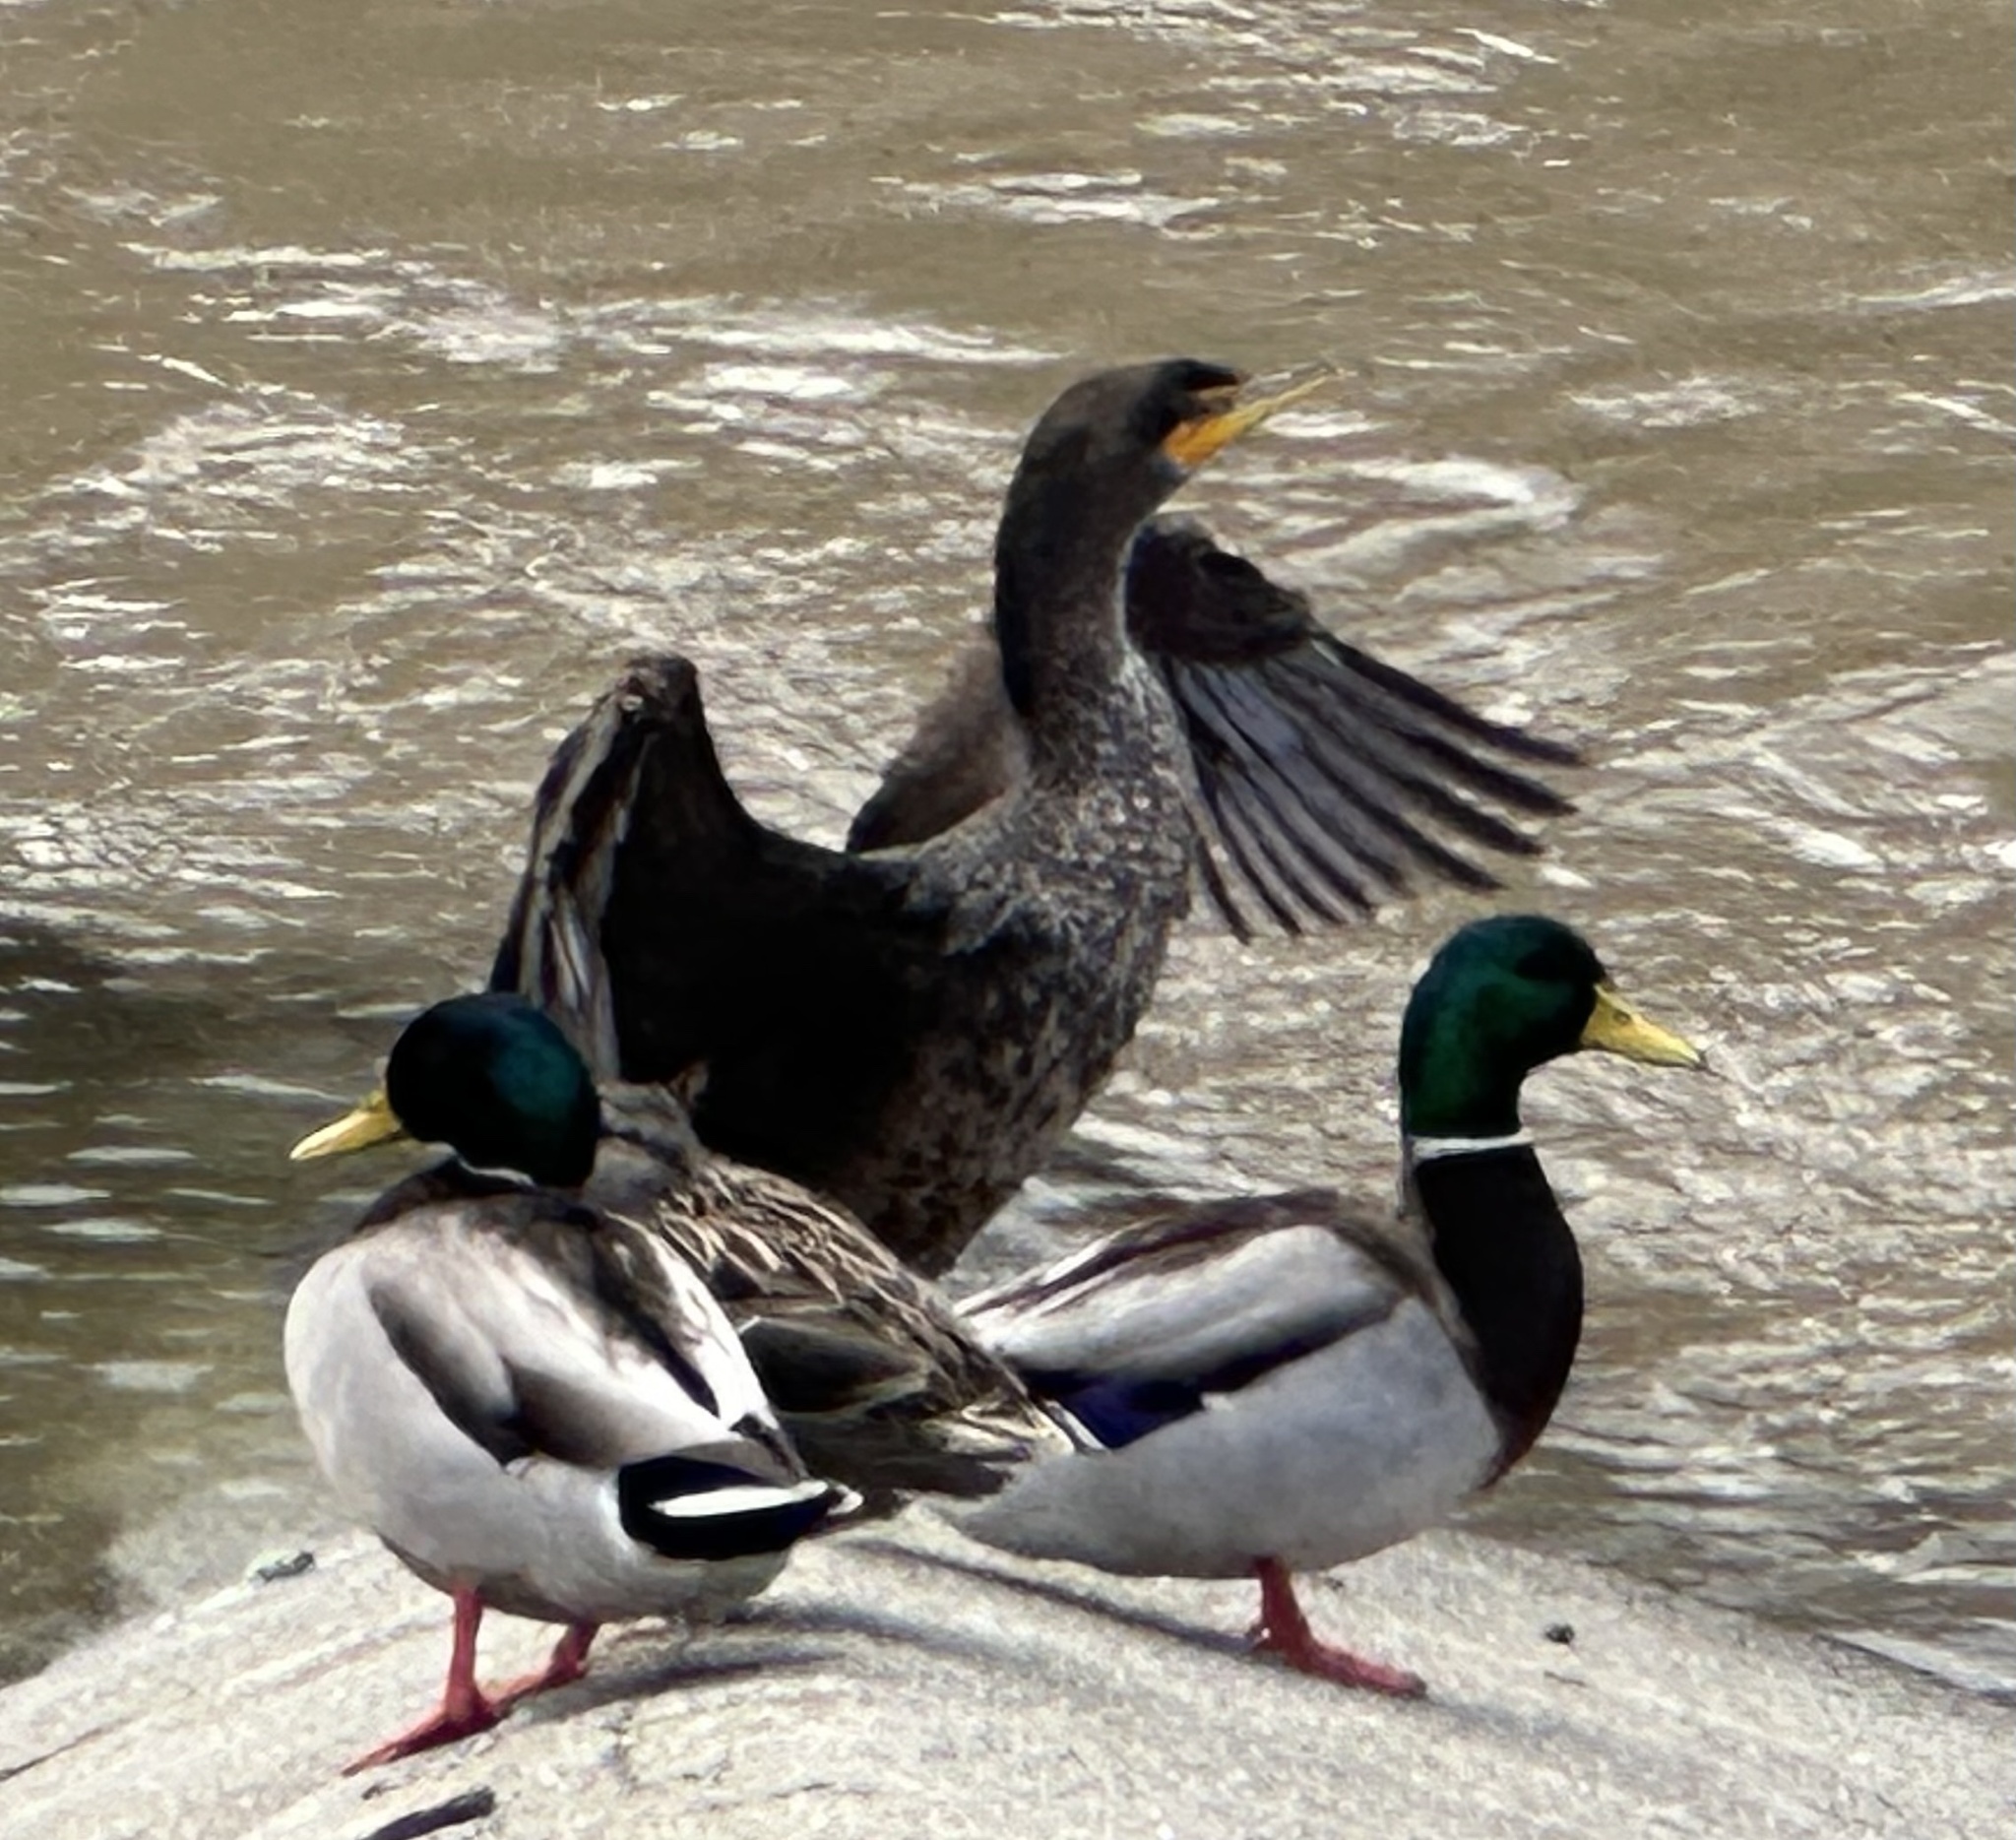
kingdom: Animalia
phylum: Chordata
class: Aves
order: Suliformes
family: Phalacrocoracidae
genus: Phalacrocorax
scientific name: Phalacrocorax auritus
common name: Double-crested cormorant
